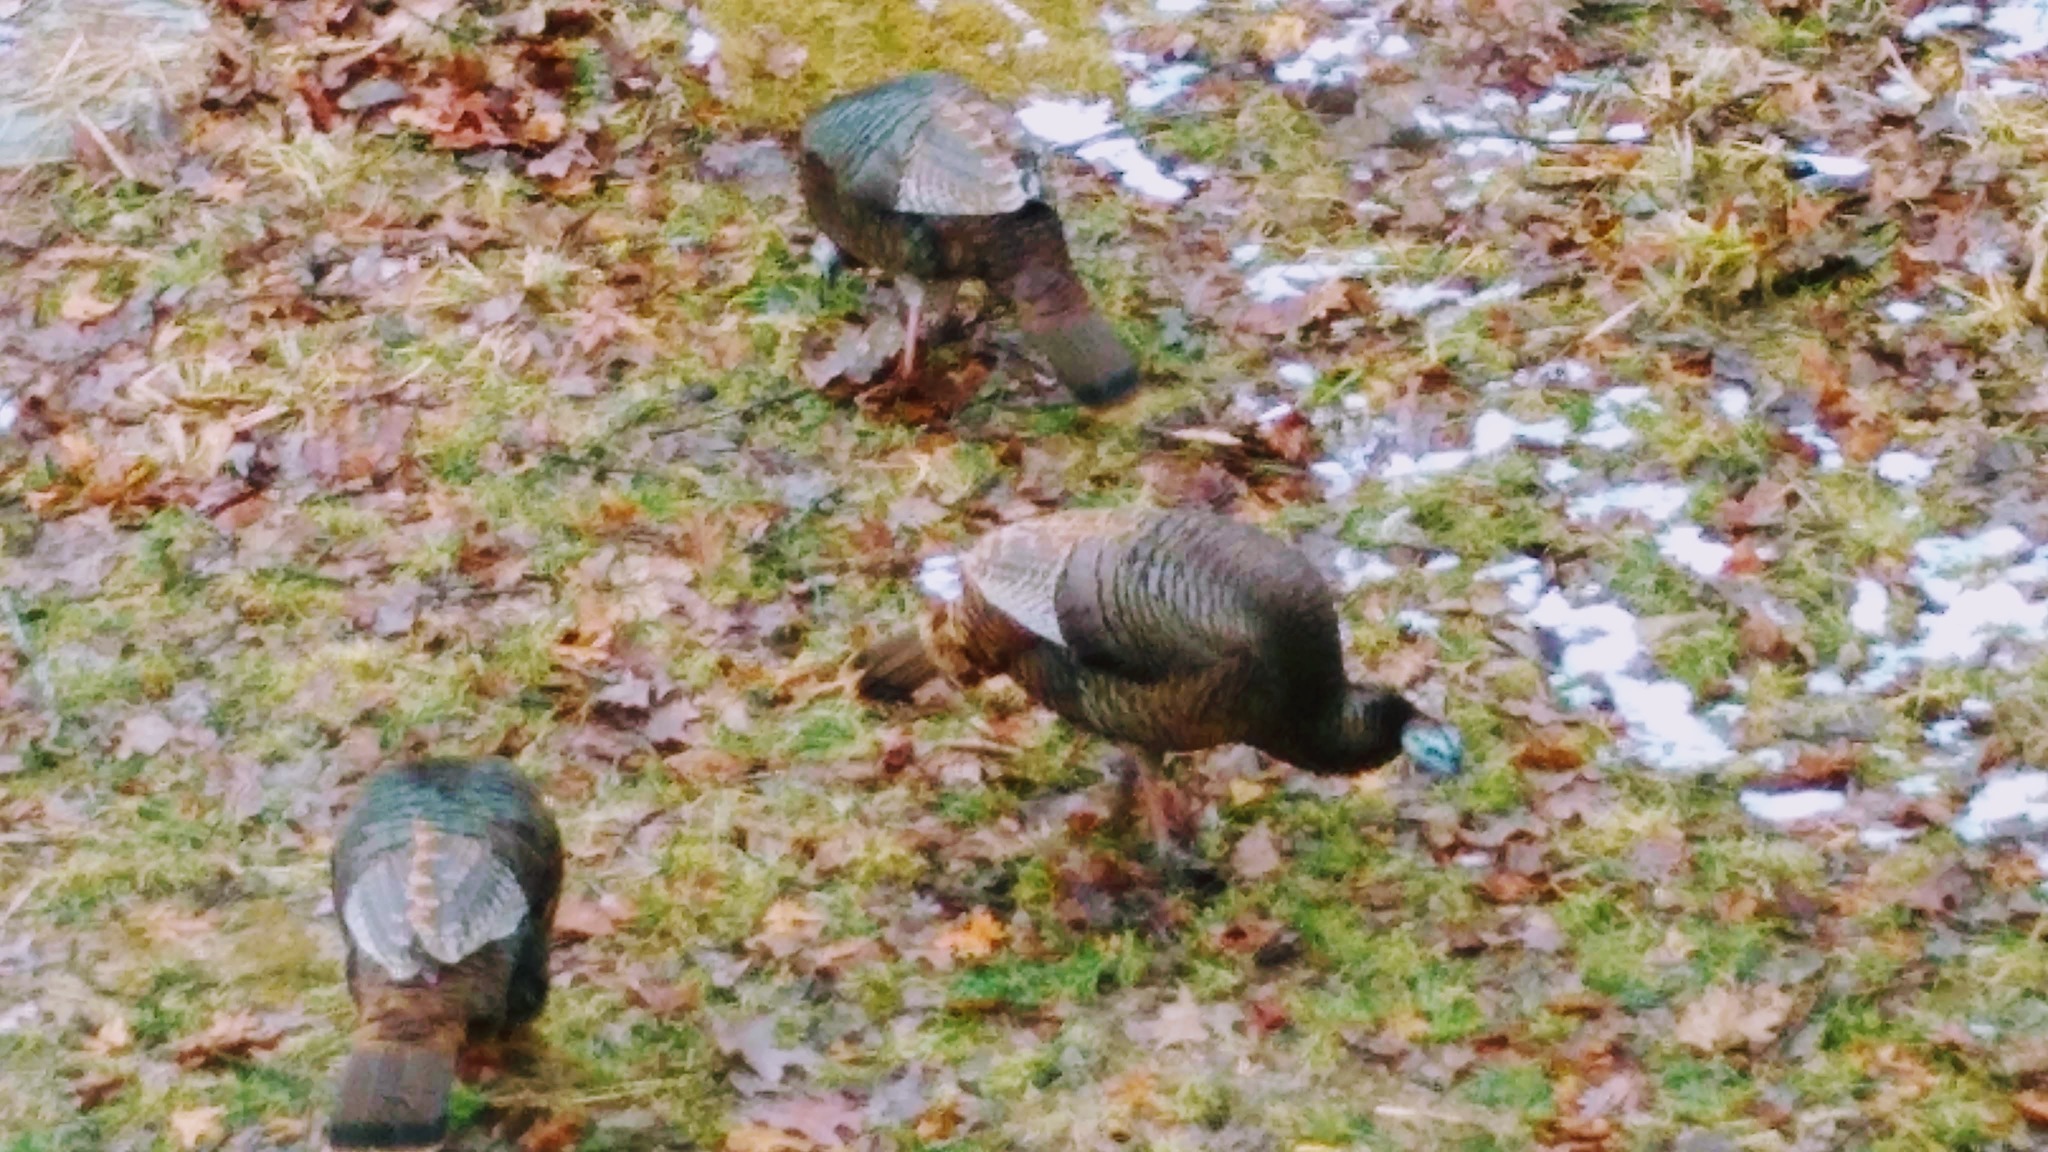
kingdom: Animalia
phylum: Chordata
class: Aves
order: Galliformes
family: Phasianidae
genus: Meleagris
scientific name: Meleagris gallopavo
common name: Wild turkey
